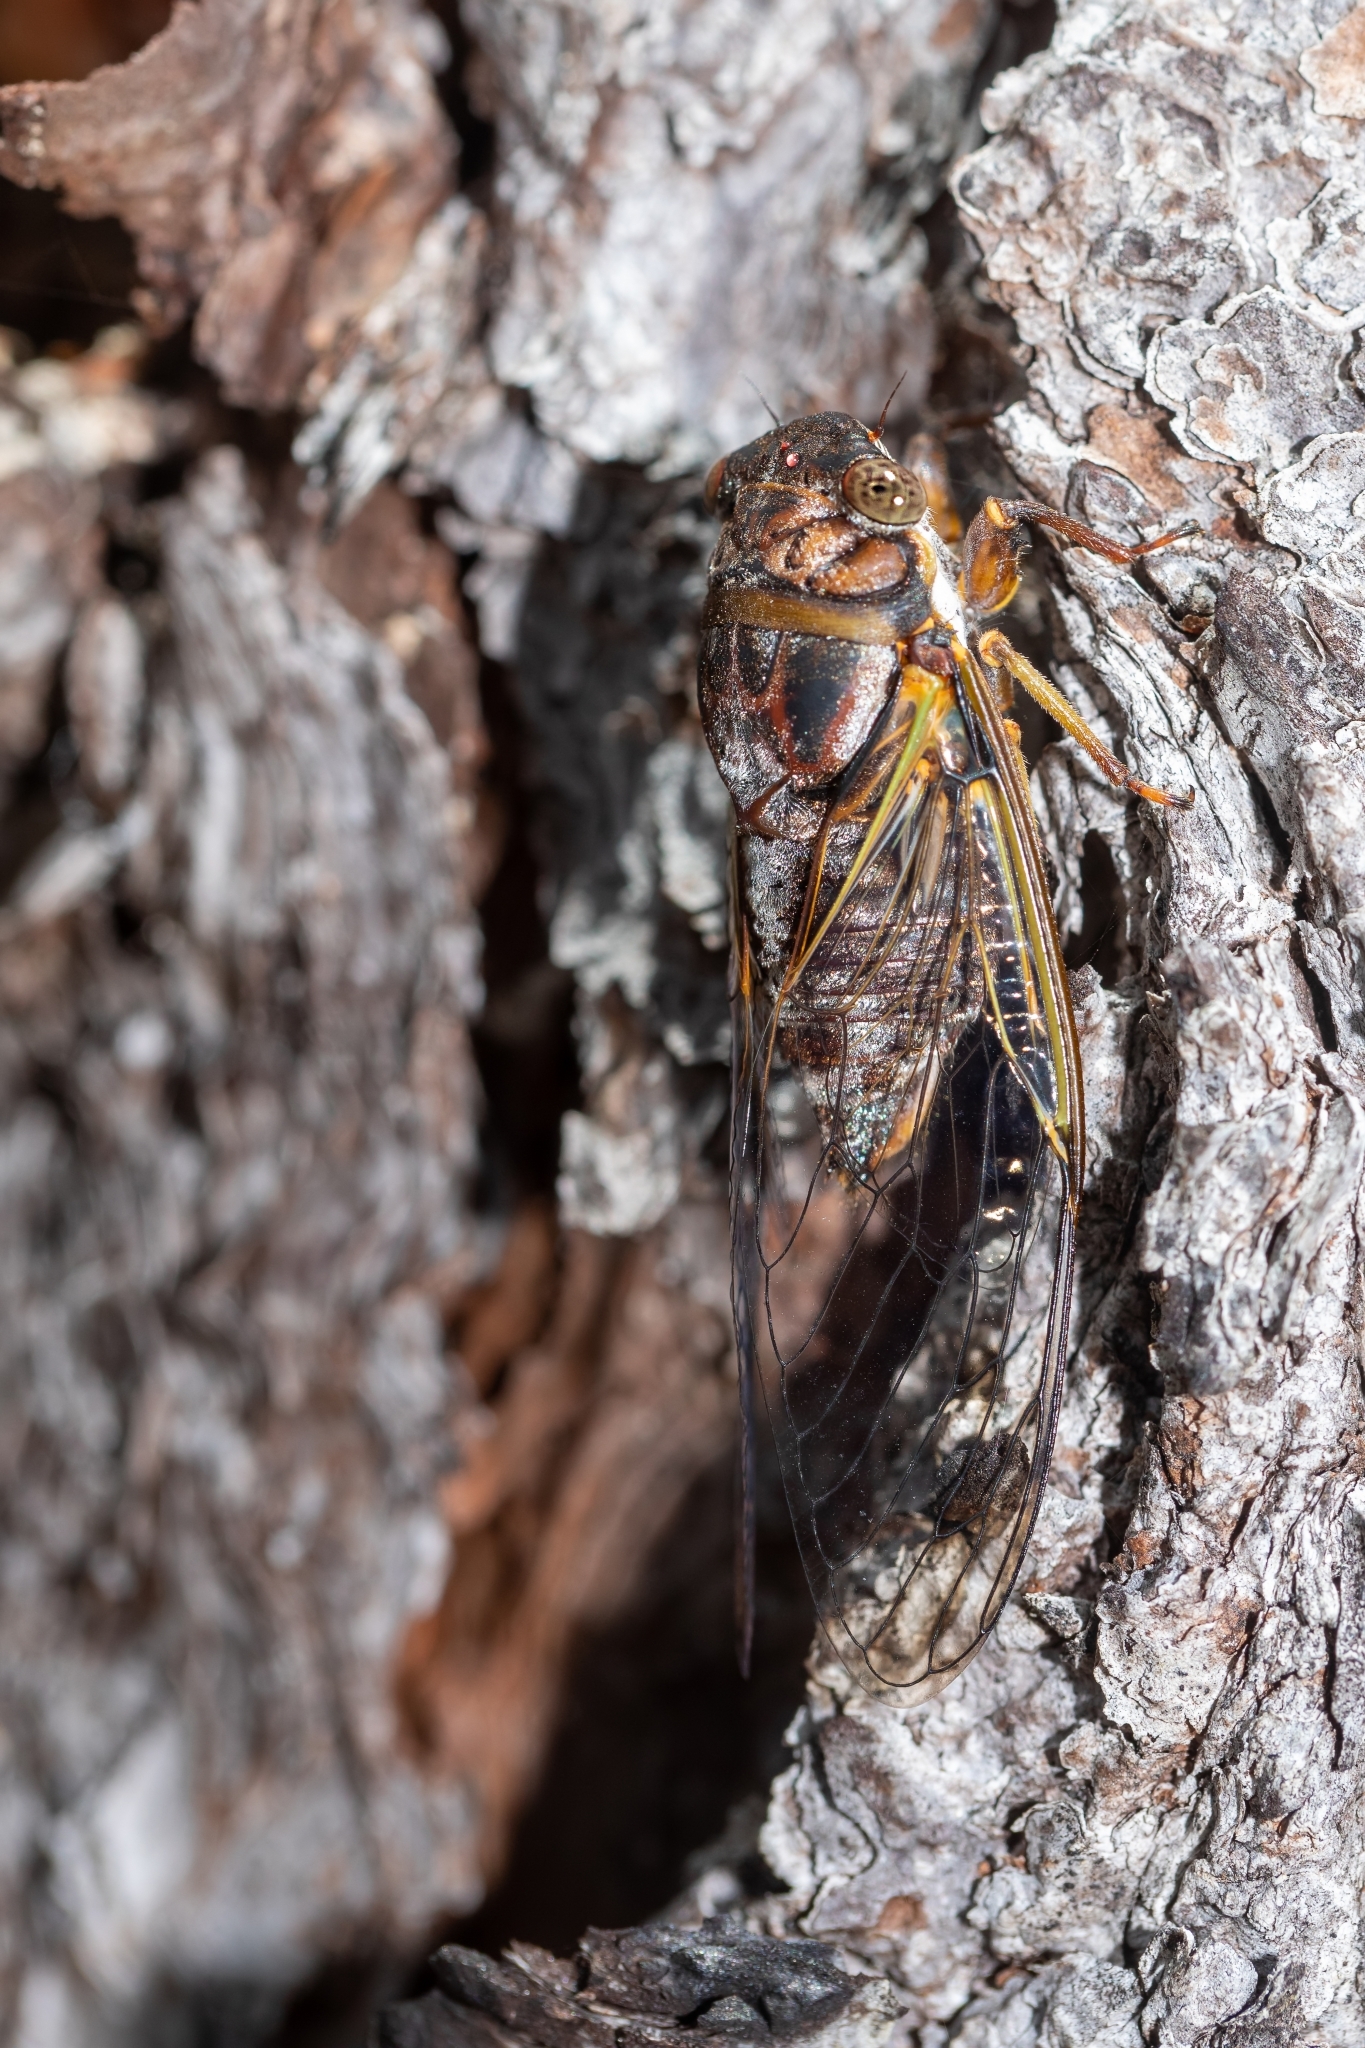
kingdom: Animalia
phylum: Arthropoda
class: Insecta
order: Hemiptera
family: Cicadidae
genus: Diceroprocta
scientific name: Diceroprocta olympusa
